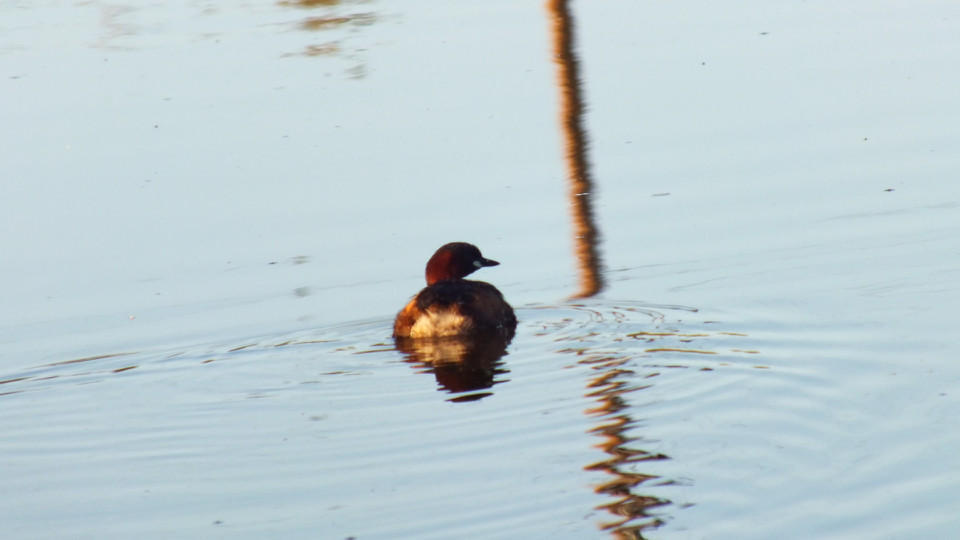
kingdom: Animalia
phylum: Chordata
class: Aves
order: Podicipediformes
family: Podicipedidae
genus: Tachybaptus
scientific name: Tachybaptus ruficollis
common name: Little grebe
